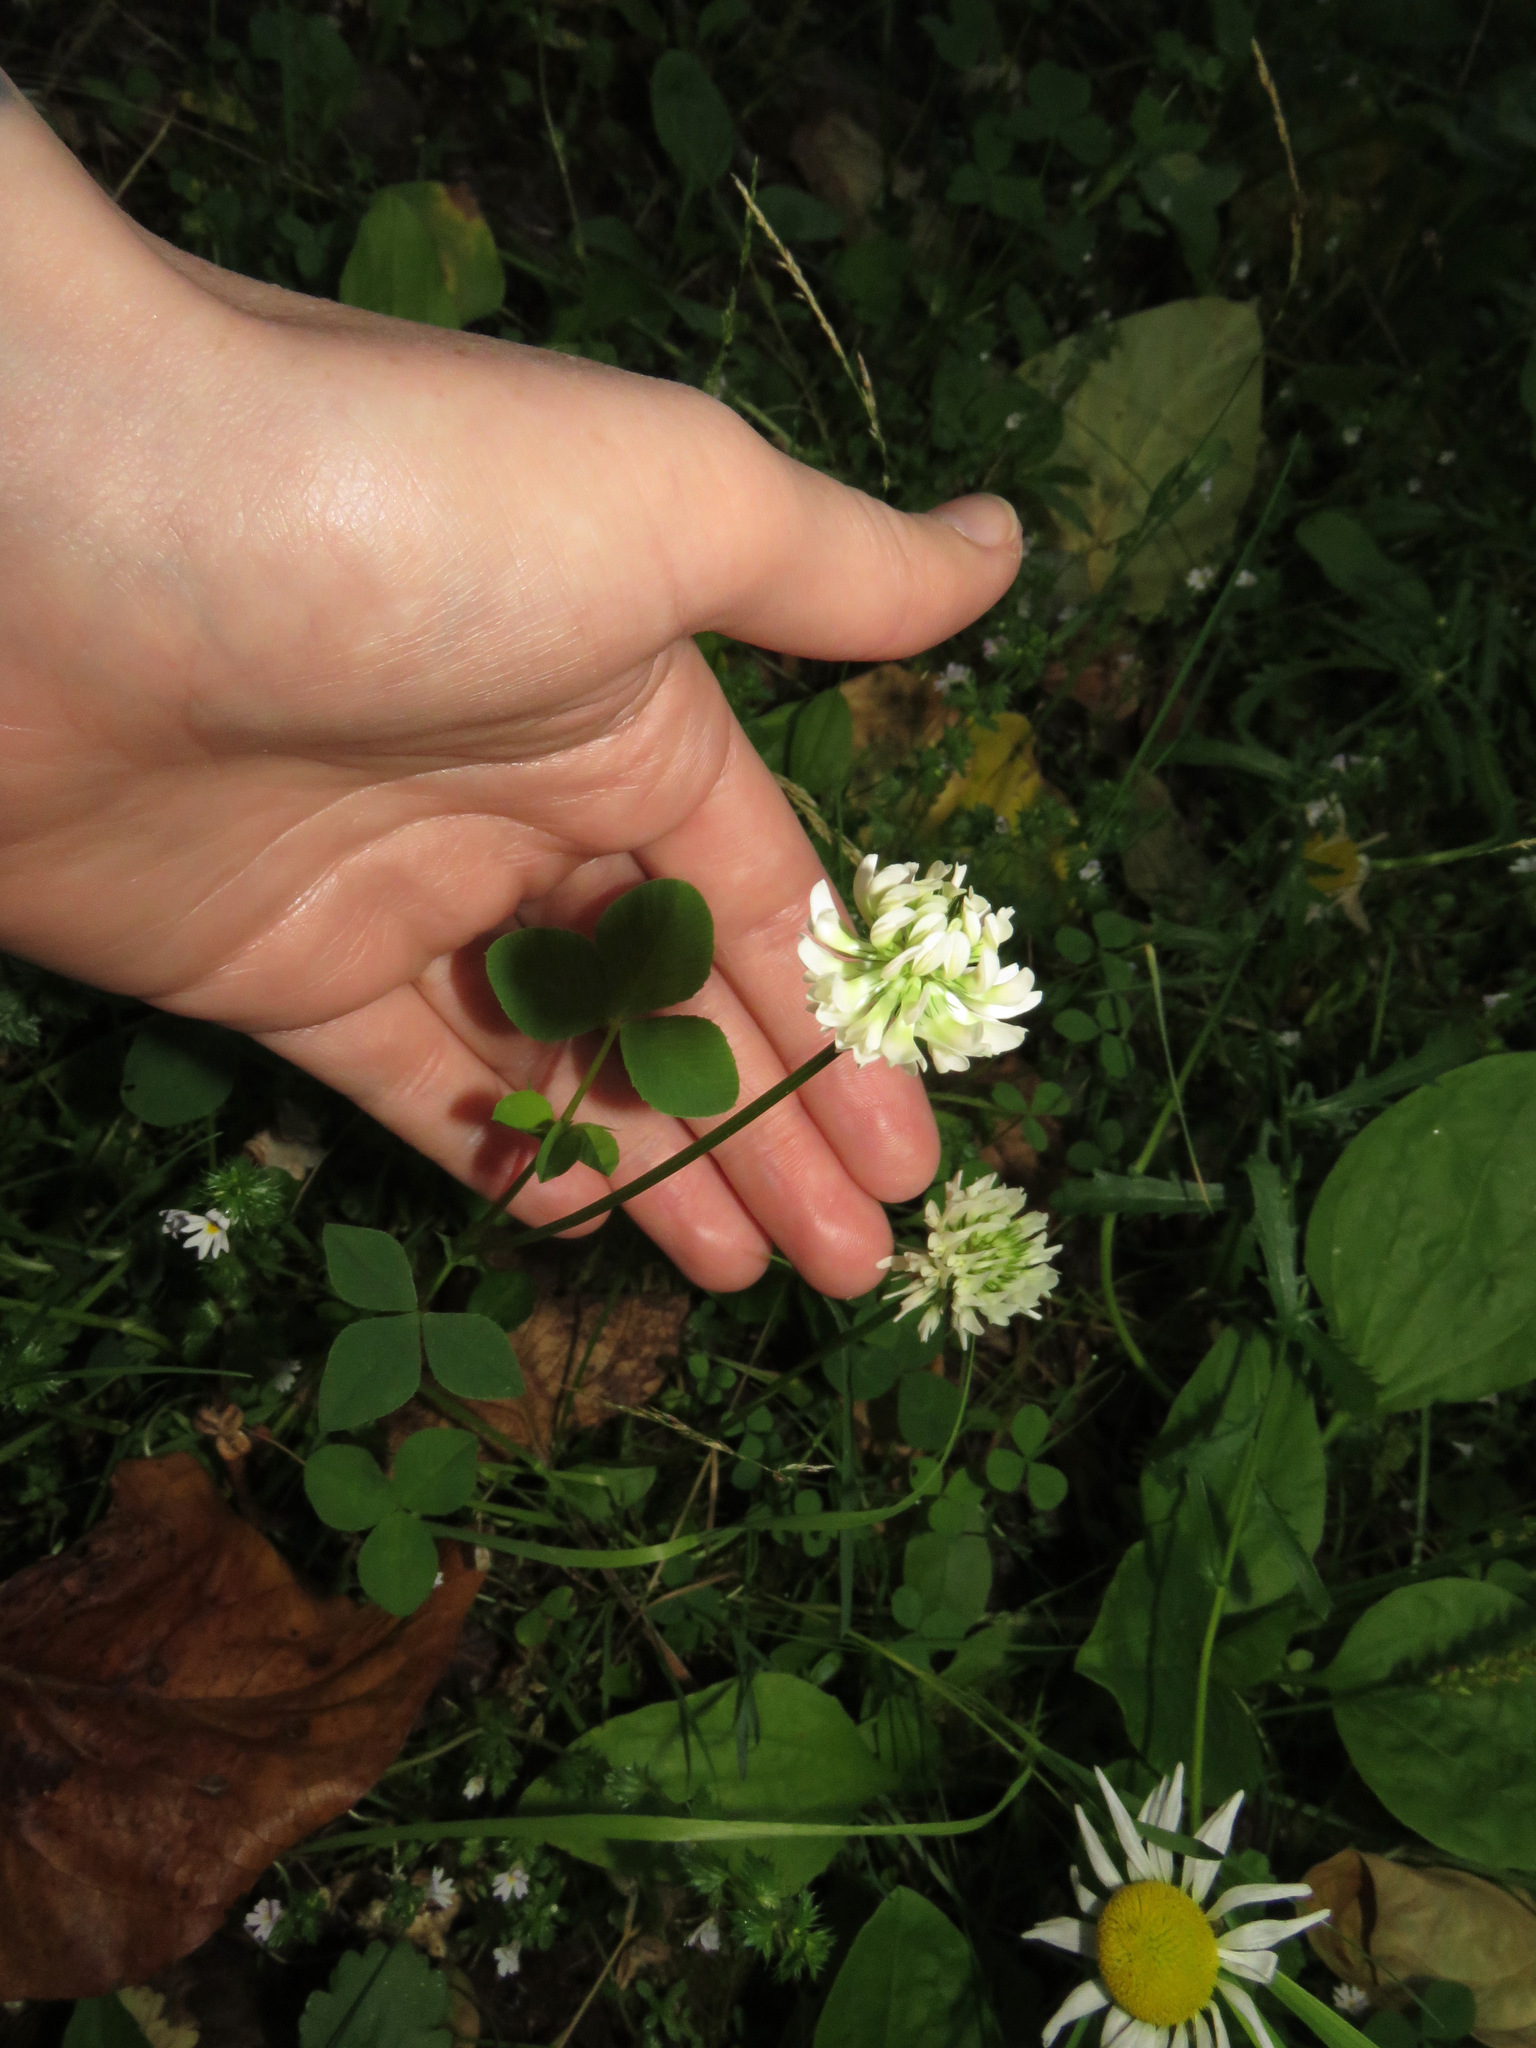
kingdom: Plantae
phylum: Tracheophyta
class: Magnoliopsida
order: Fabales
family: Fabaceae
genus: Trifolium
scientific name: Trifolium hybridum
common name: Alsike clover
